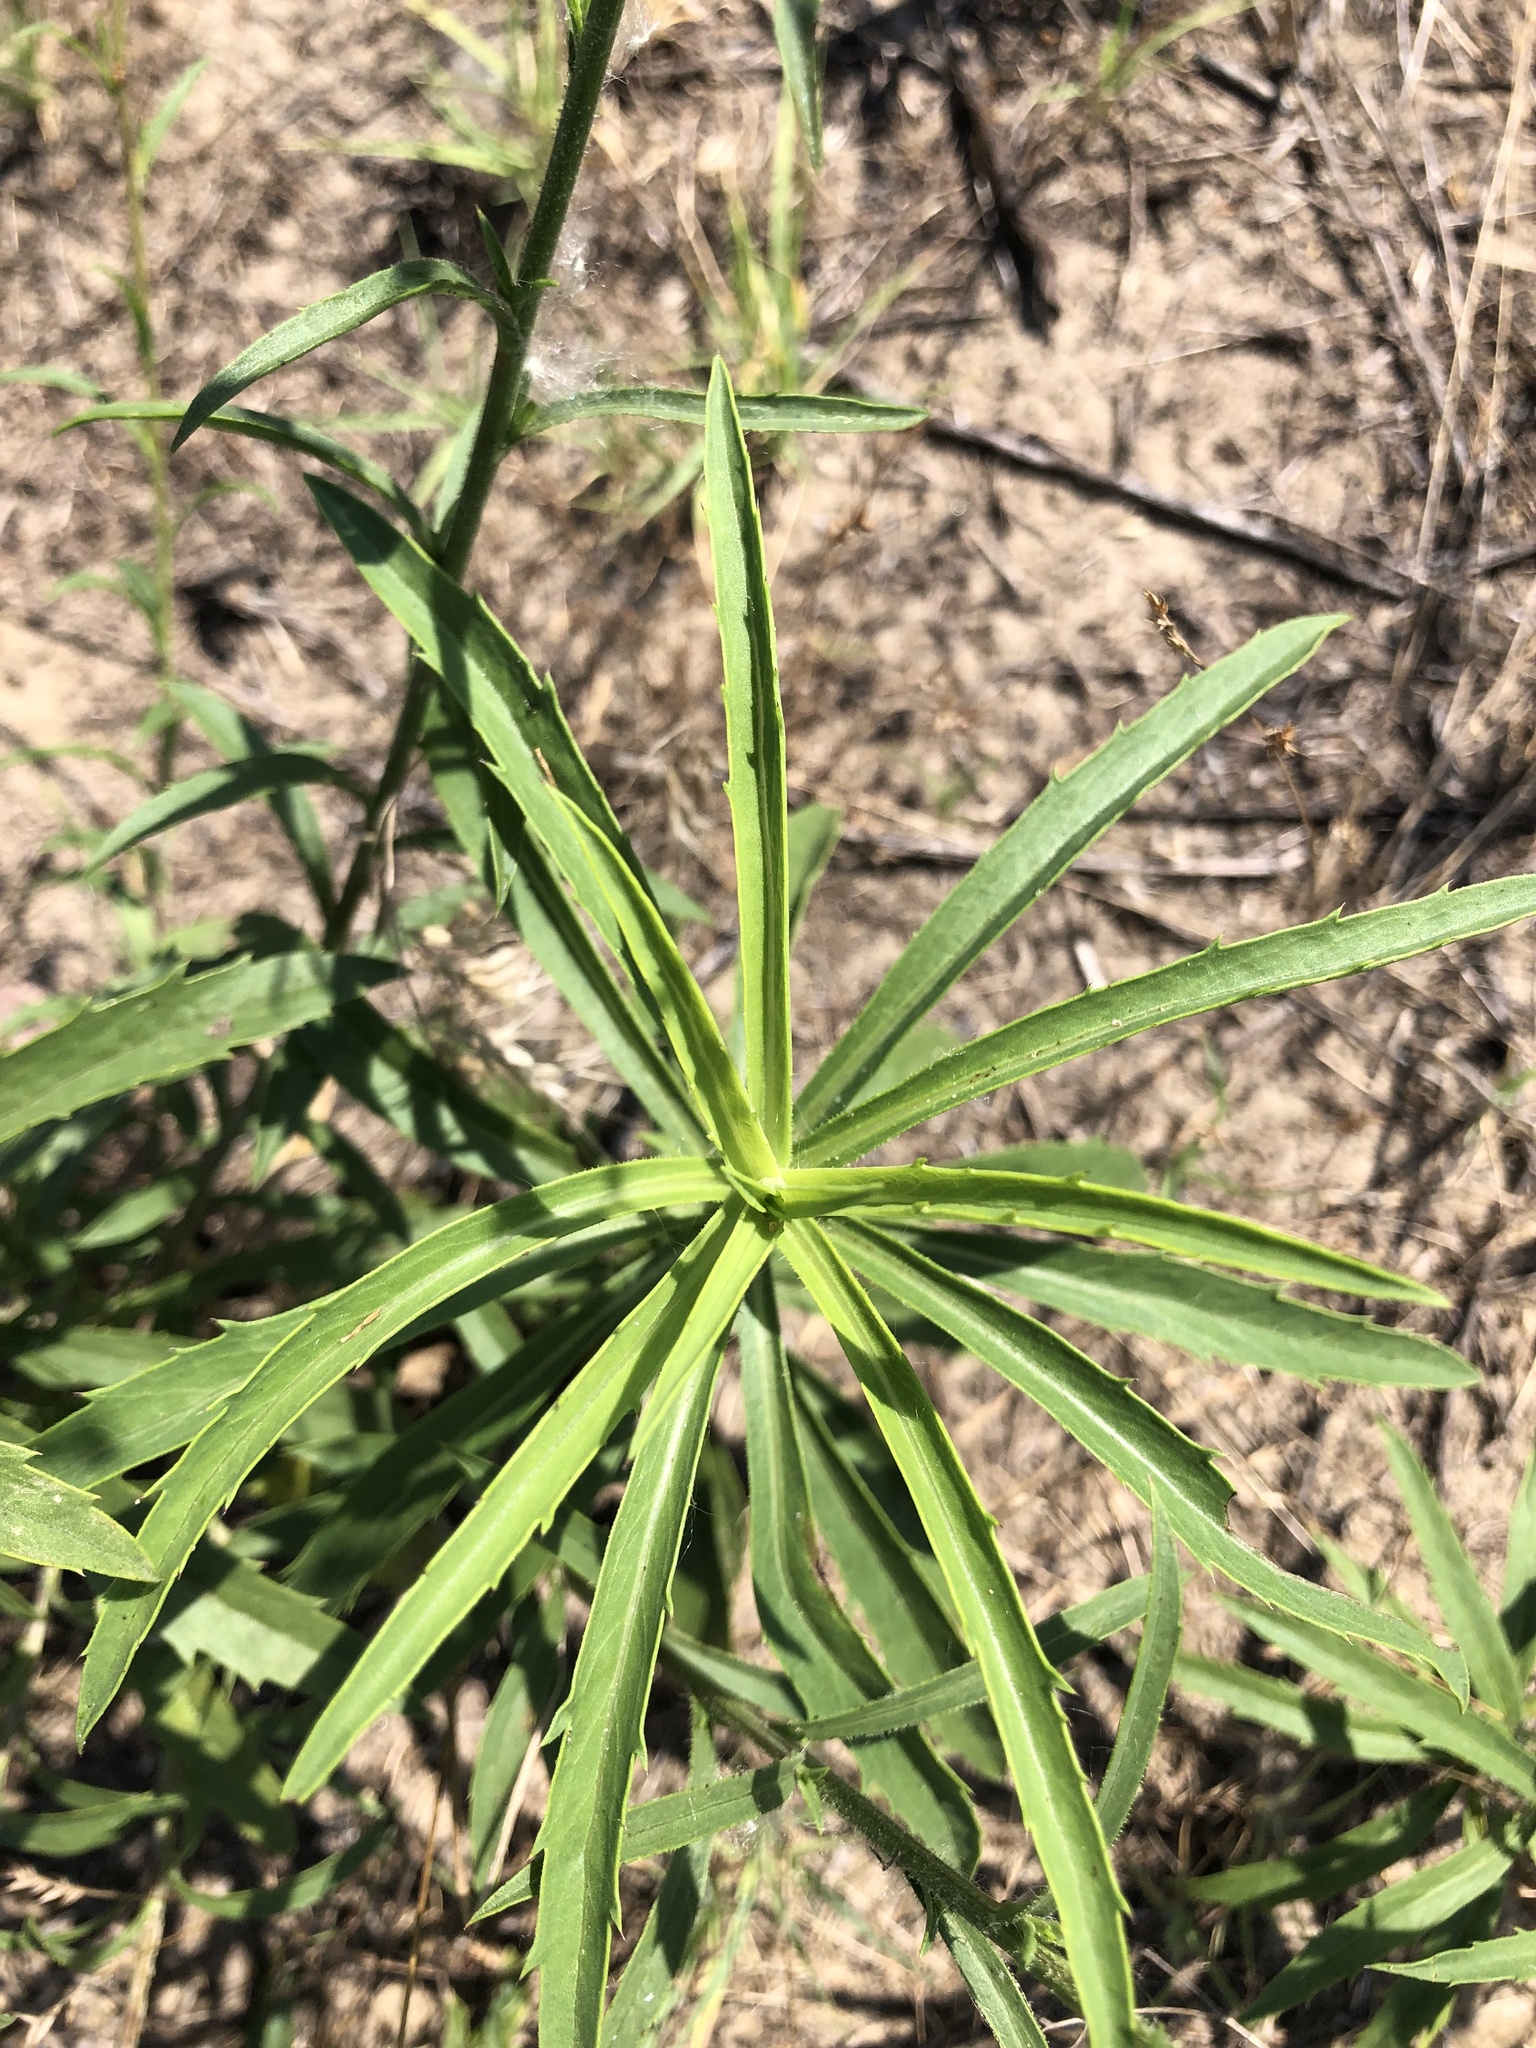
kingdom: Plantae
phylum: Tracheophyta
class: Magnoliopsida
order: Asterales
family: Asteraceae
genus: Croptilon
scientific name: Croptilon hookerianum
